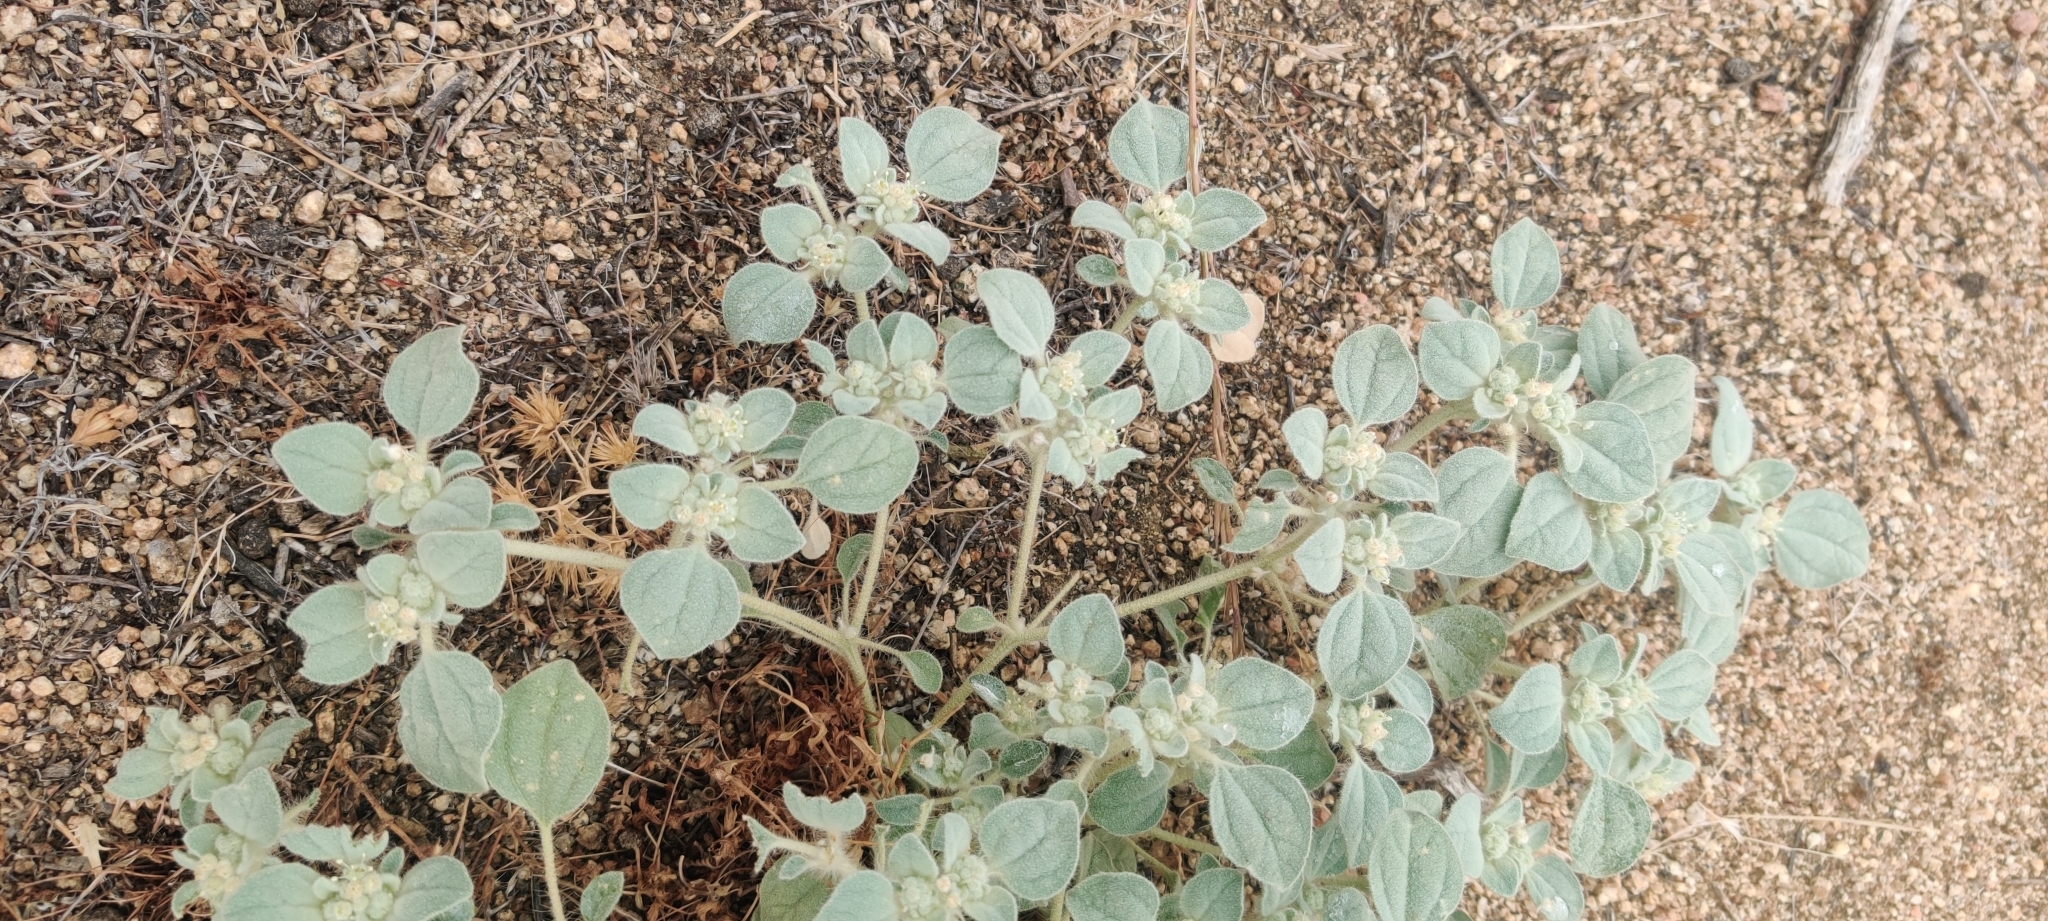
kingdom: Plantae
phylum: Tracheophyta
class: Magnoliopsida
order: Malpighiales
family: Euphorbiaceae
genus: Croton
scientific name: Croton setiger
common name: Dove weed
